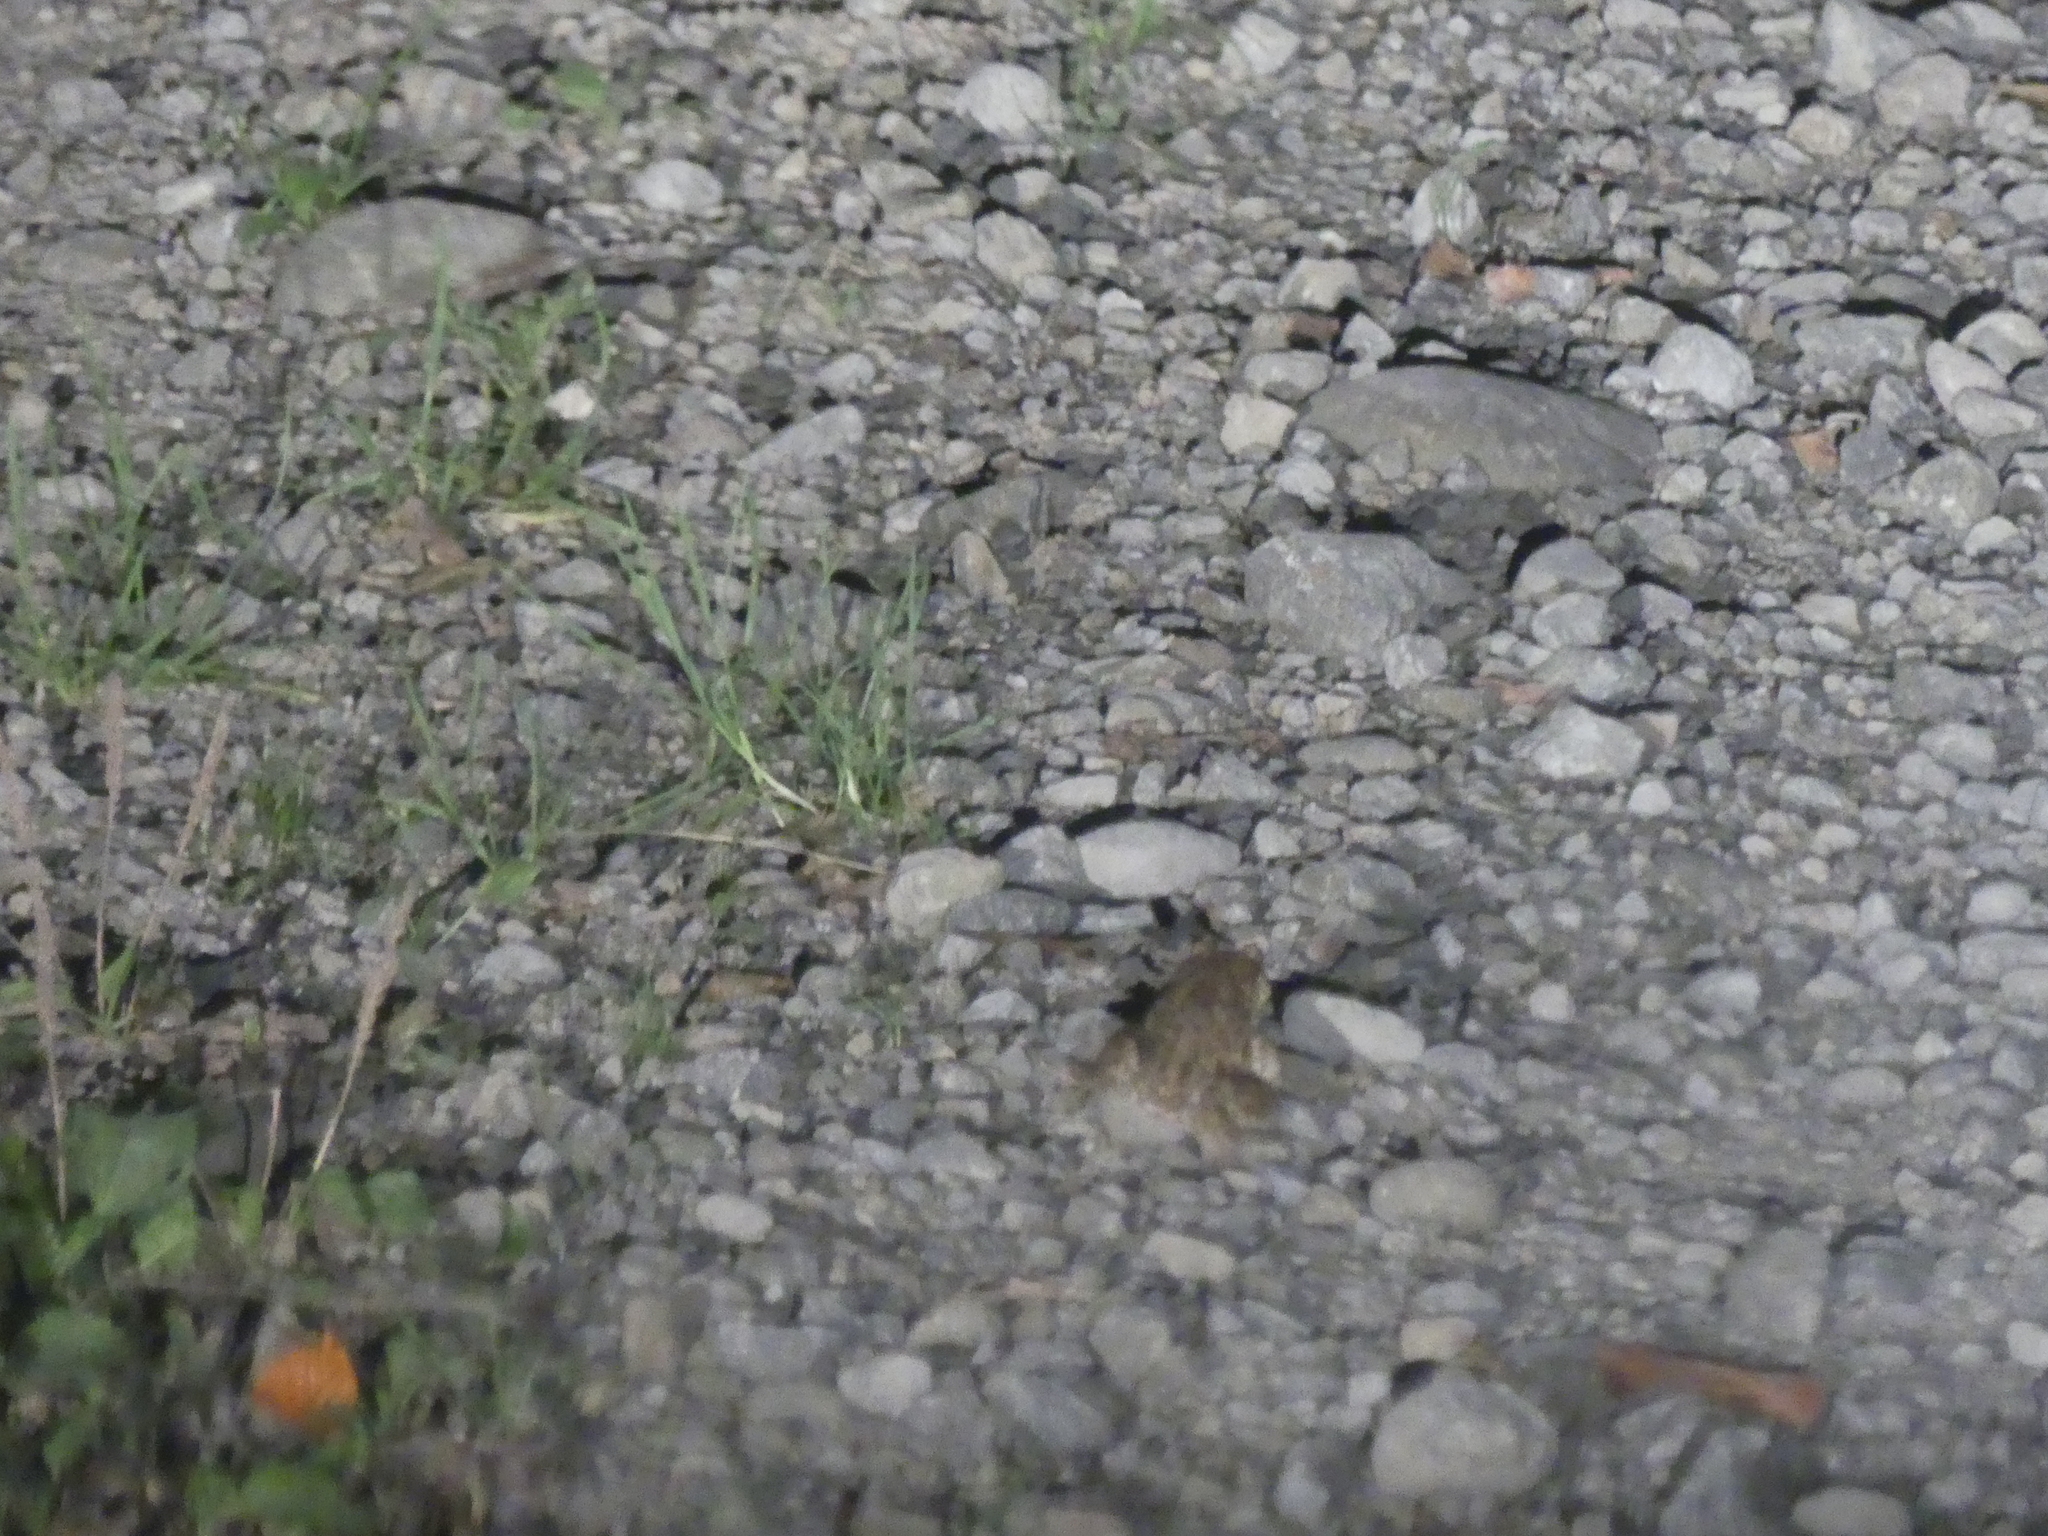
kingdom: Animalia
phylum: Chordata
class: Amphibia
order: Anura
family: Bufonidae
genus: Bufo
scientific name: Bufo bufo
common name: Common toad
